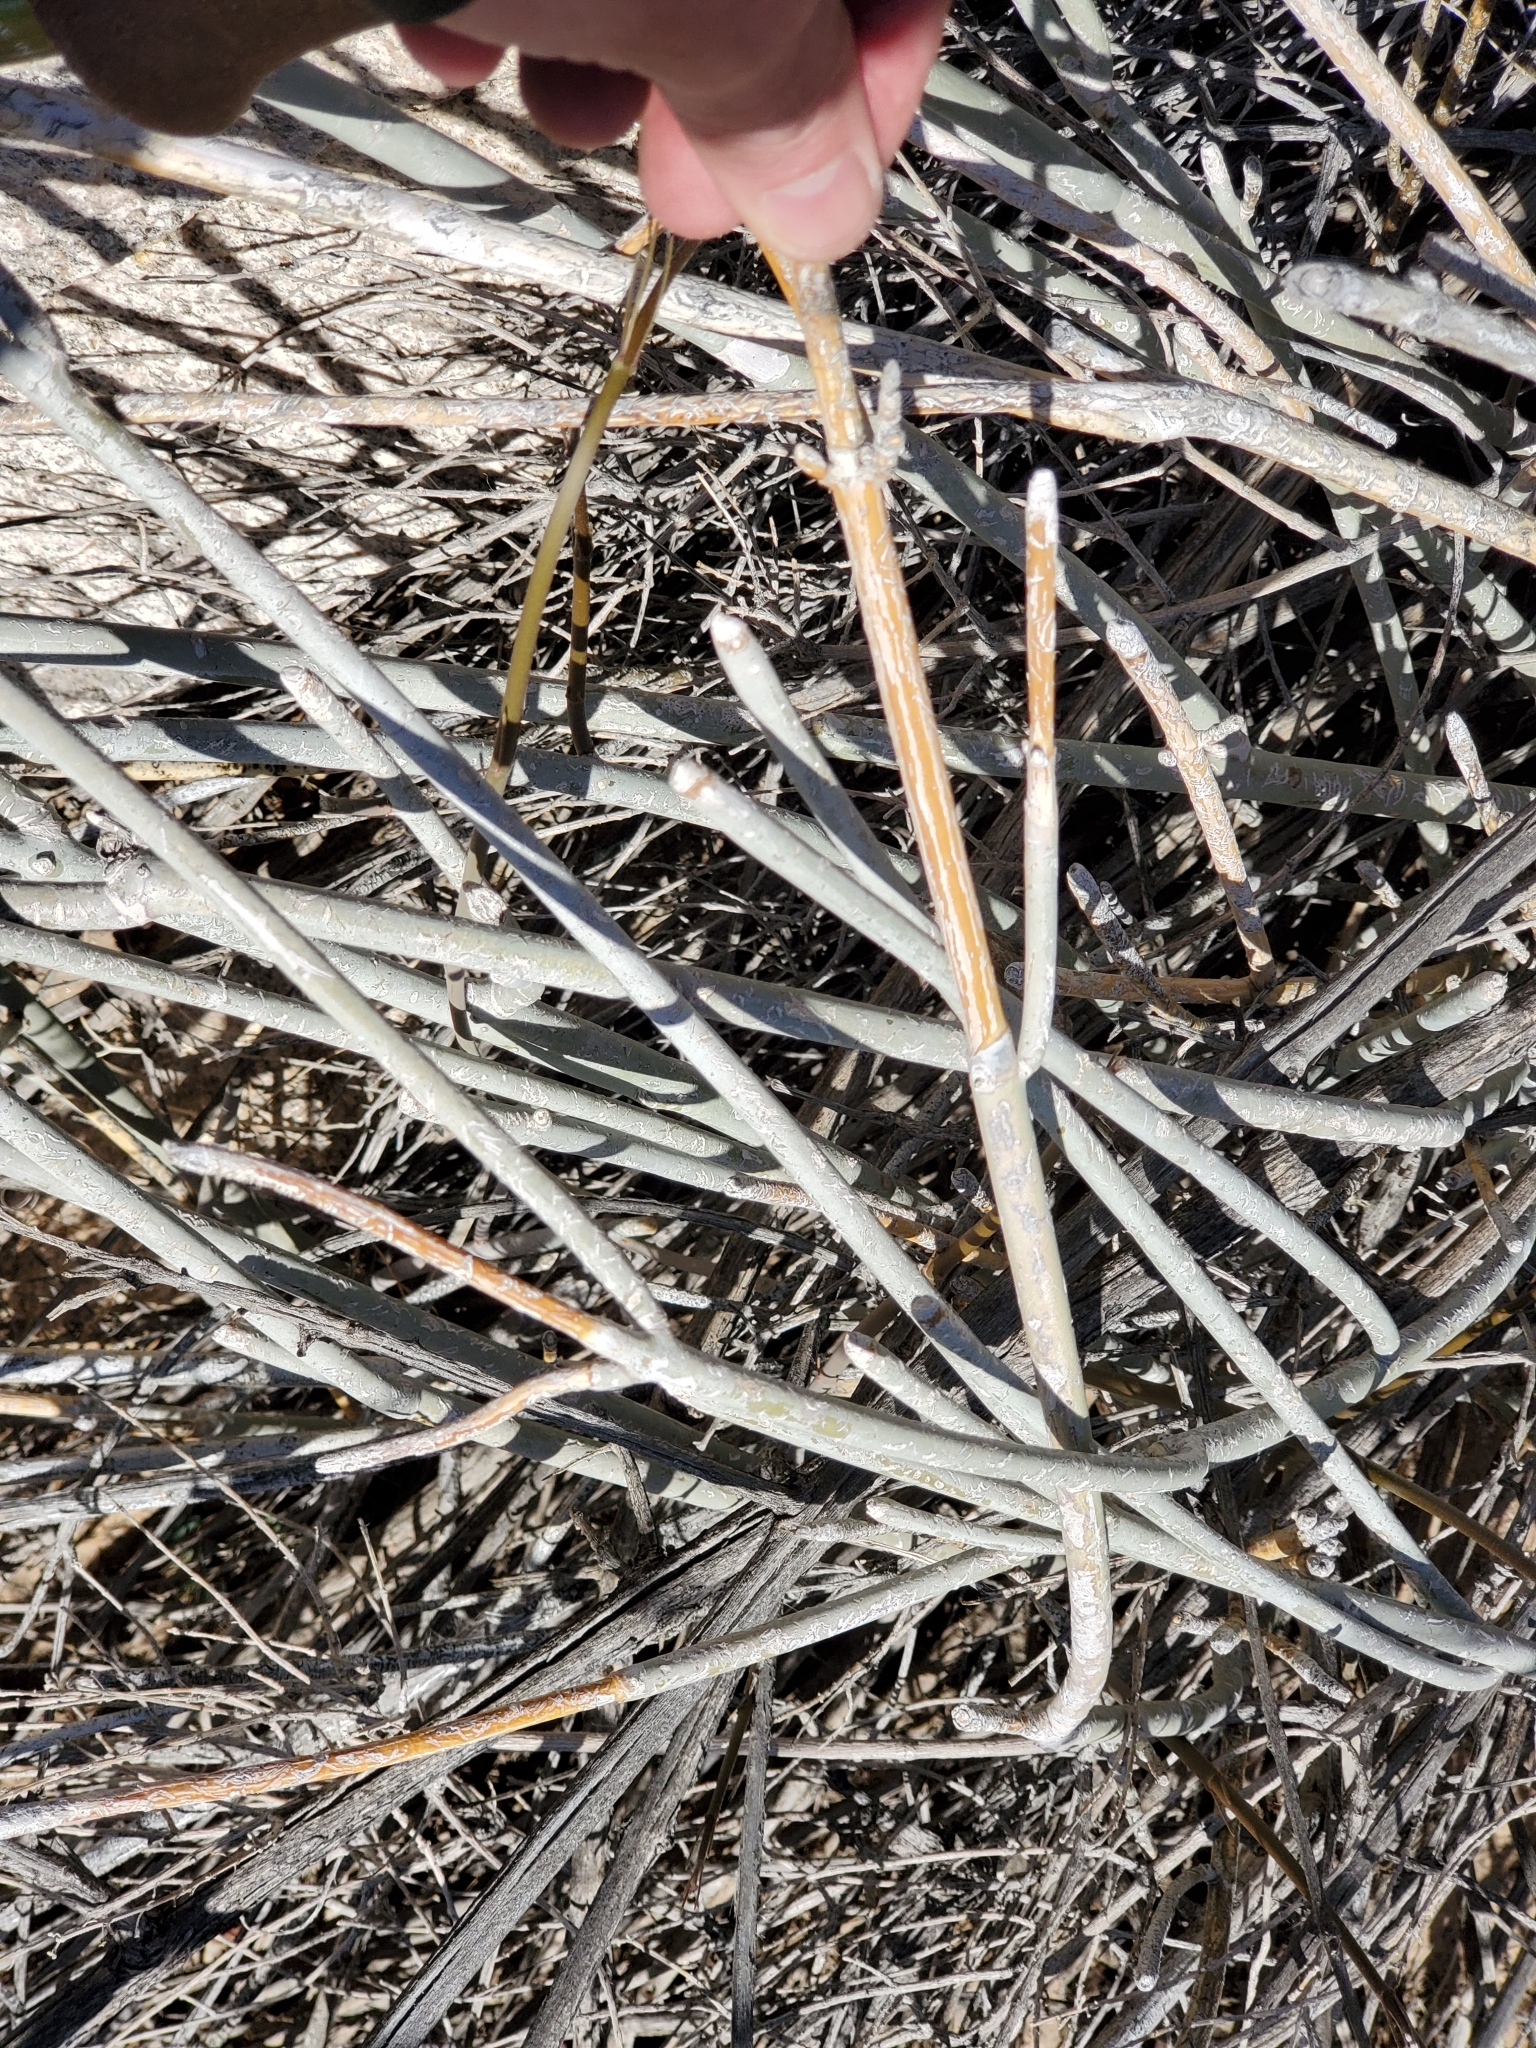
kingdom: Plantae
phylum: Tracheophyta
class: Magnoliopsida
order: Gentianales
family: Apocynaceae
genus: Asclepias
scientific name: Asclepias albicans
